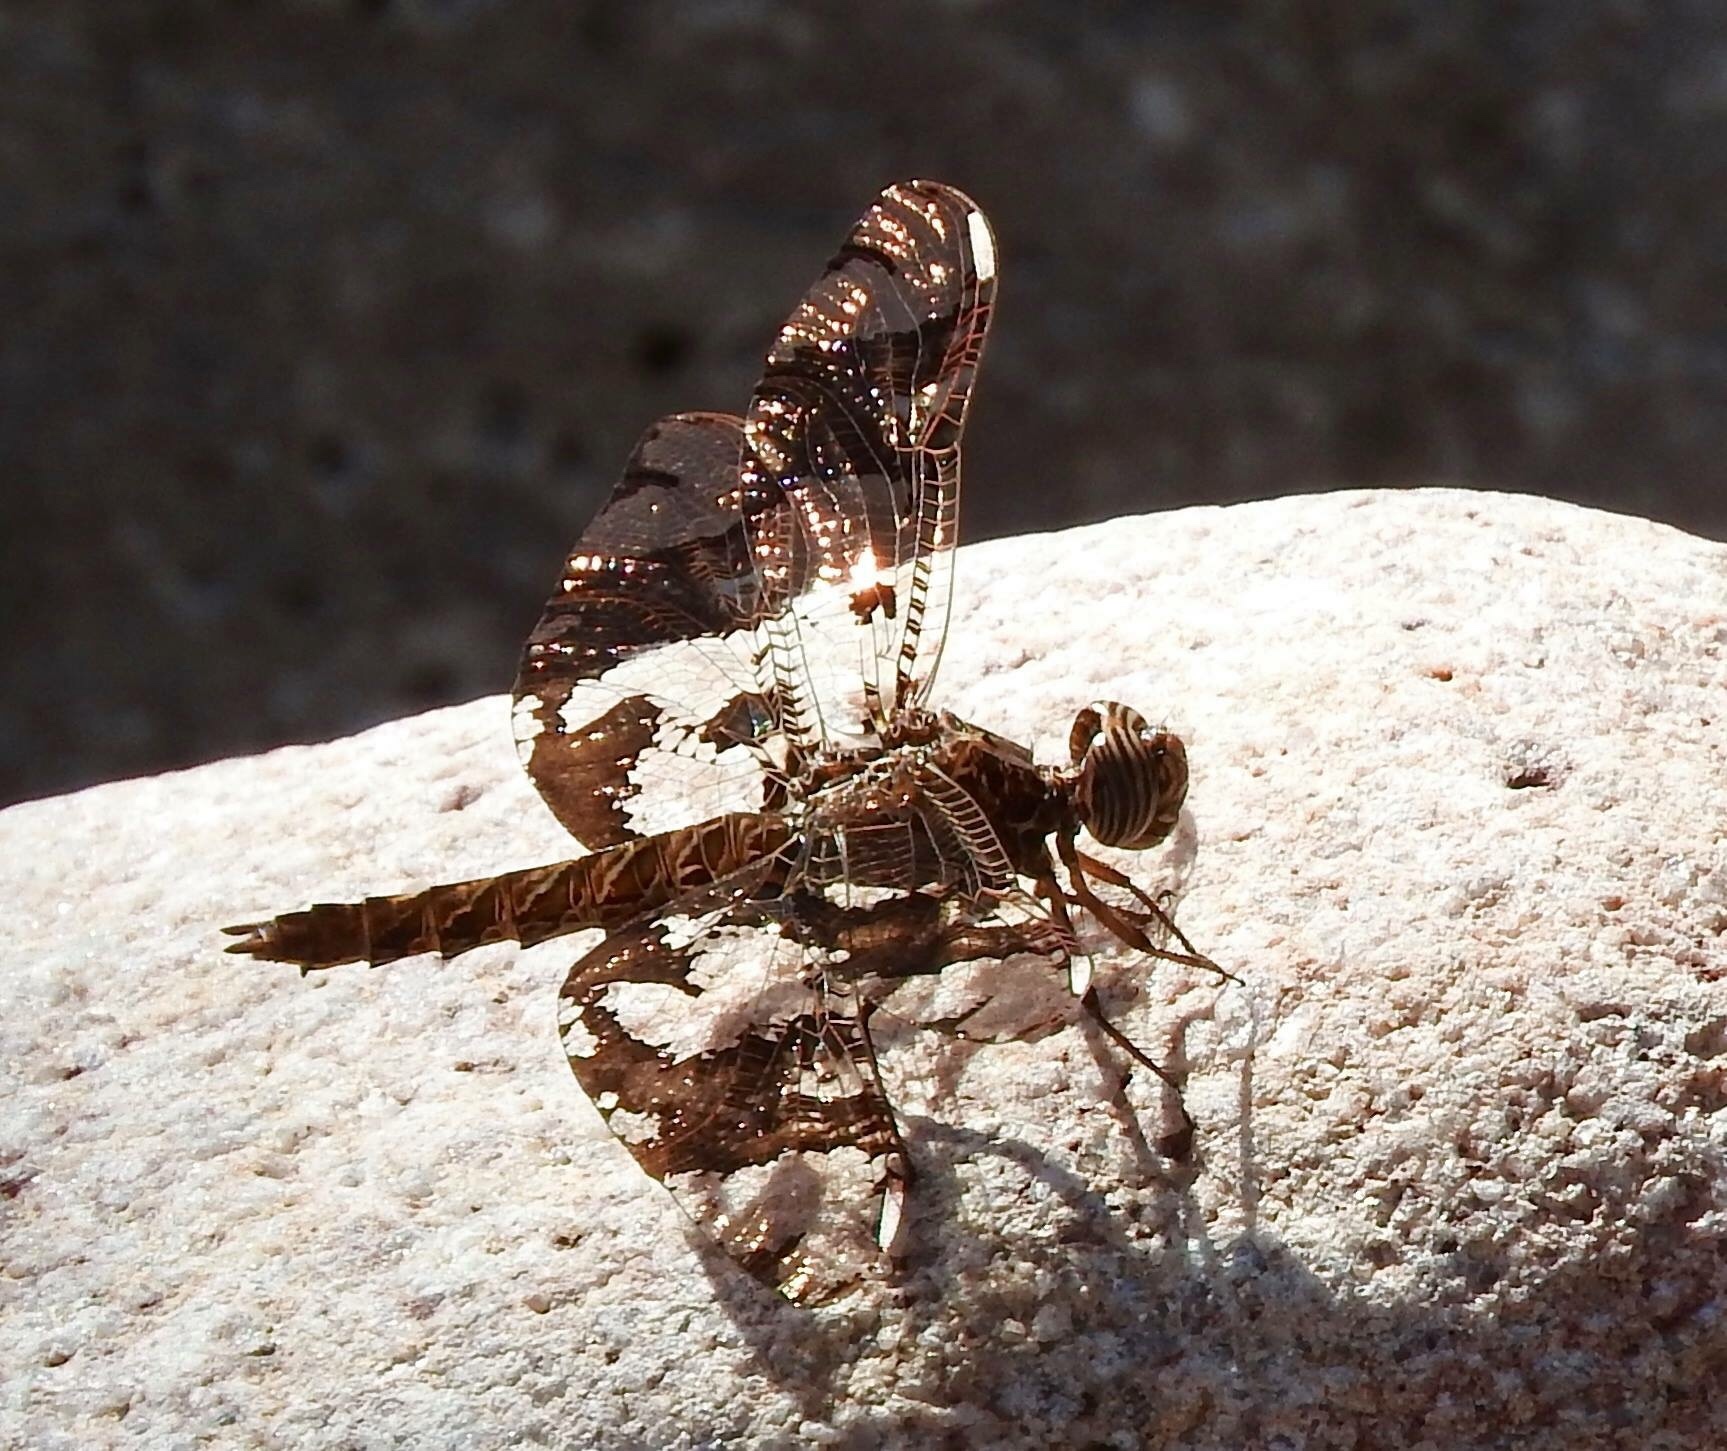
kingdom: Animalia
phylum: Arthropoda
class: Insecta
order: Odonata
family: Libellulidae
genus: Pseudoleon
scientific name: Pseudoleon superbus
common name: Filigree skimmer
